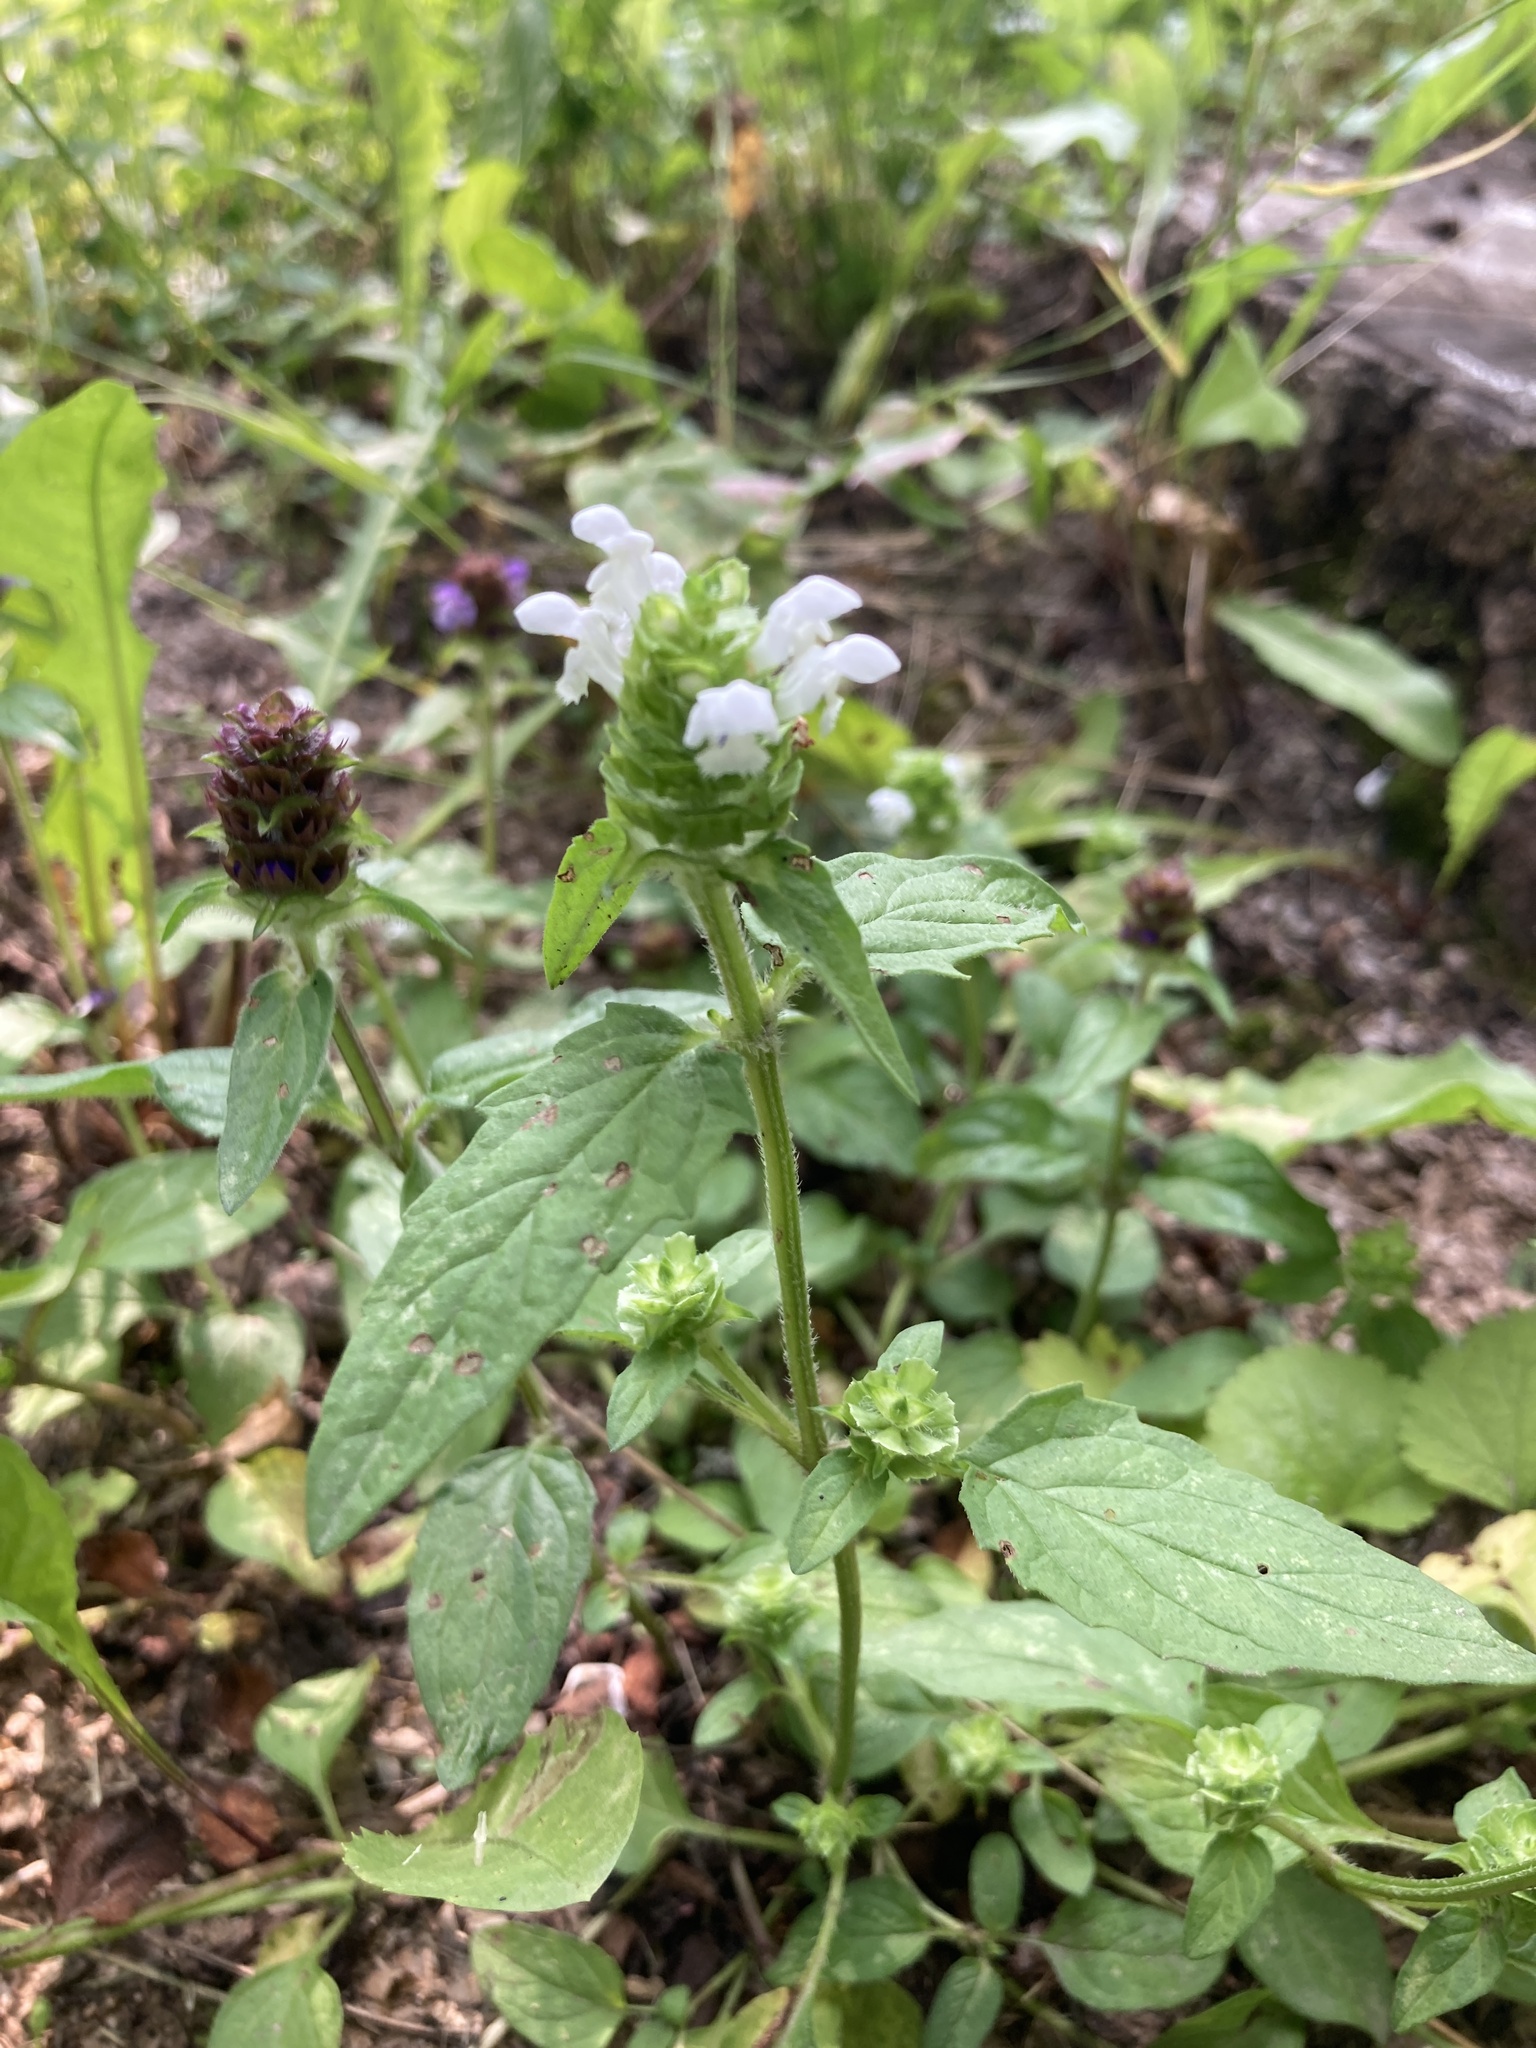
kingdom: Plantae
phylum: Tracheophyta
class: Magnoliopsida
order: Lamiales
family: Lamiaceae
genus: Prunella
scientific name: Prunella vulgaris
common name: Heal-all
